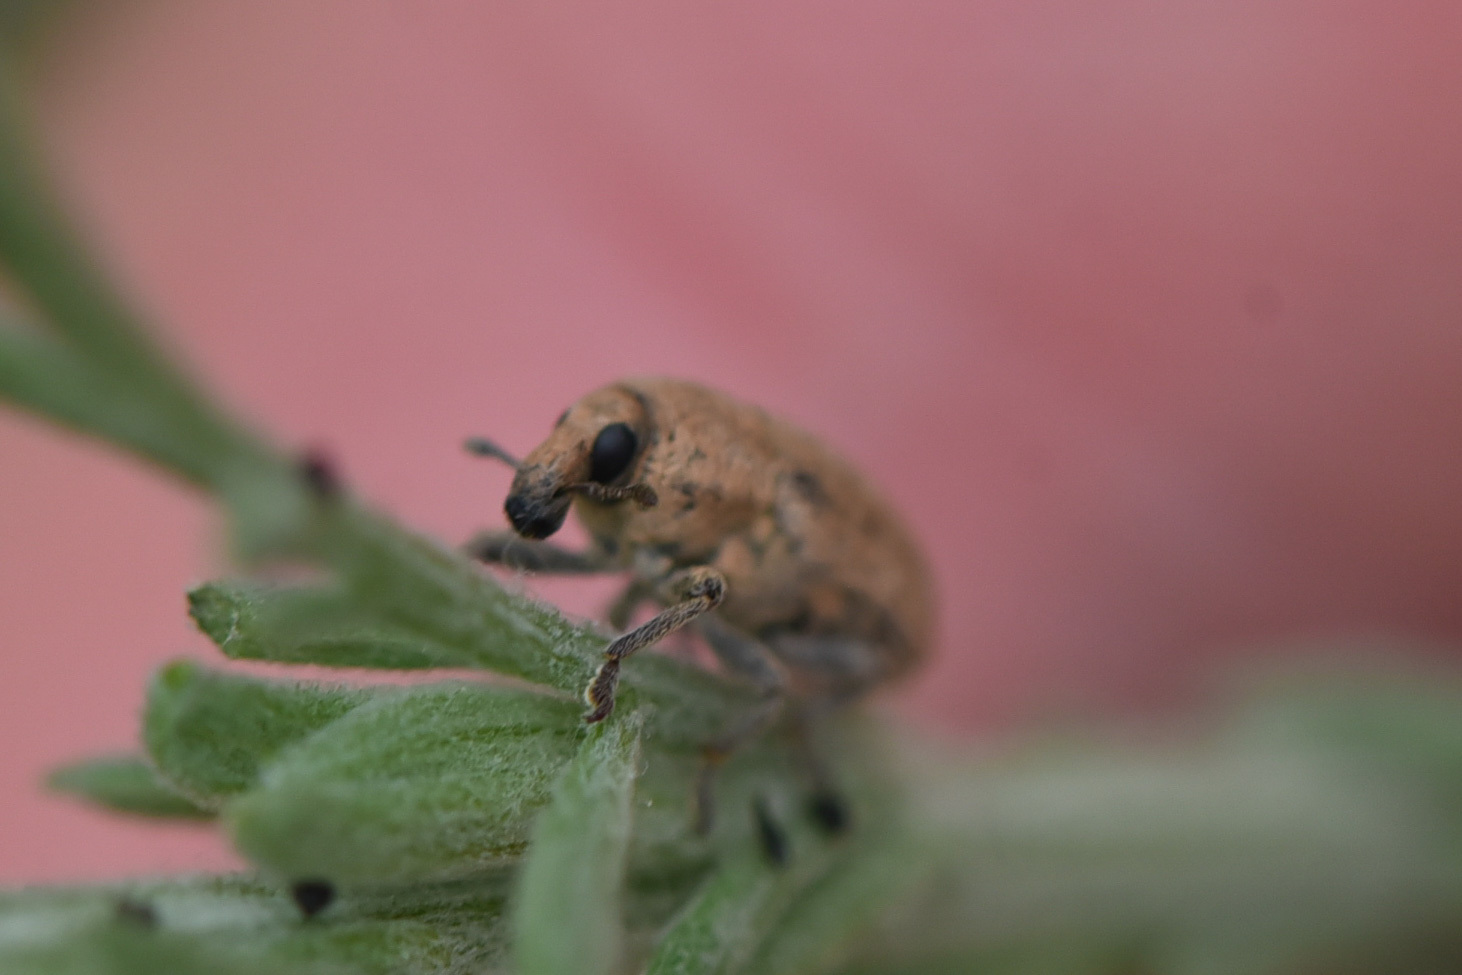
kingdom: Animalia
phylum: Arthropoda
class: Insecta
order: Coleoptera
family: Curculionidae
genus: Larinus
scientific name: Larinus minutus
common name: Weevil
